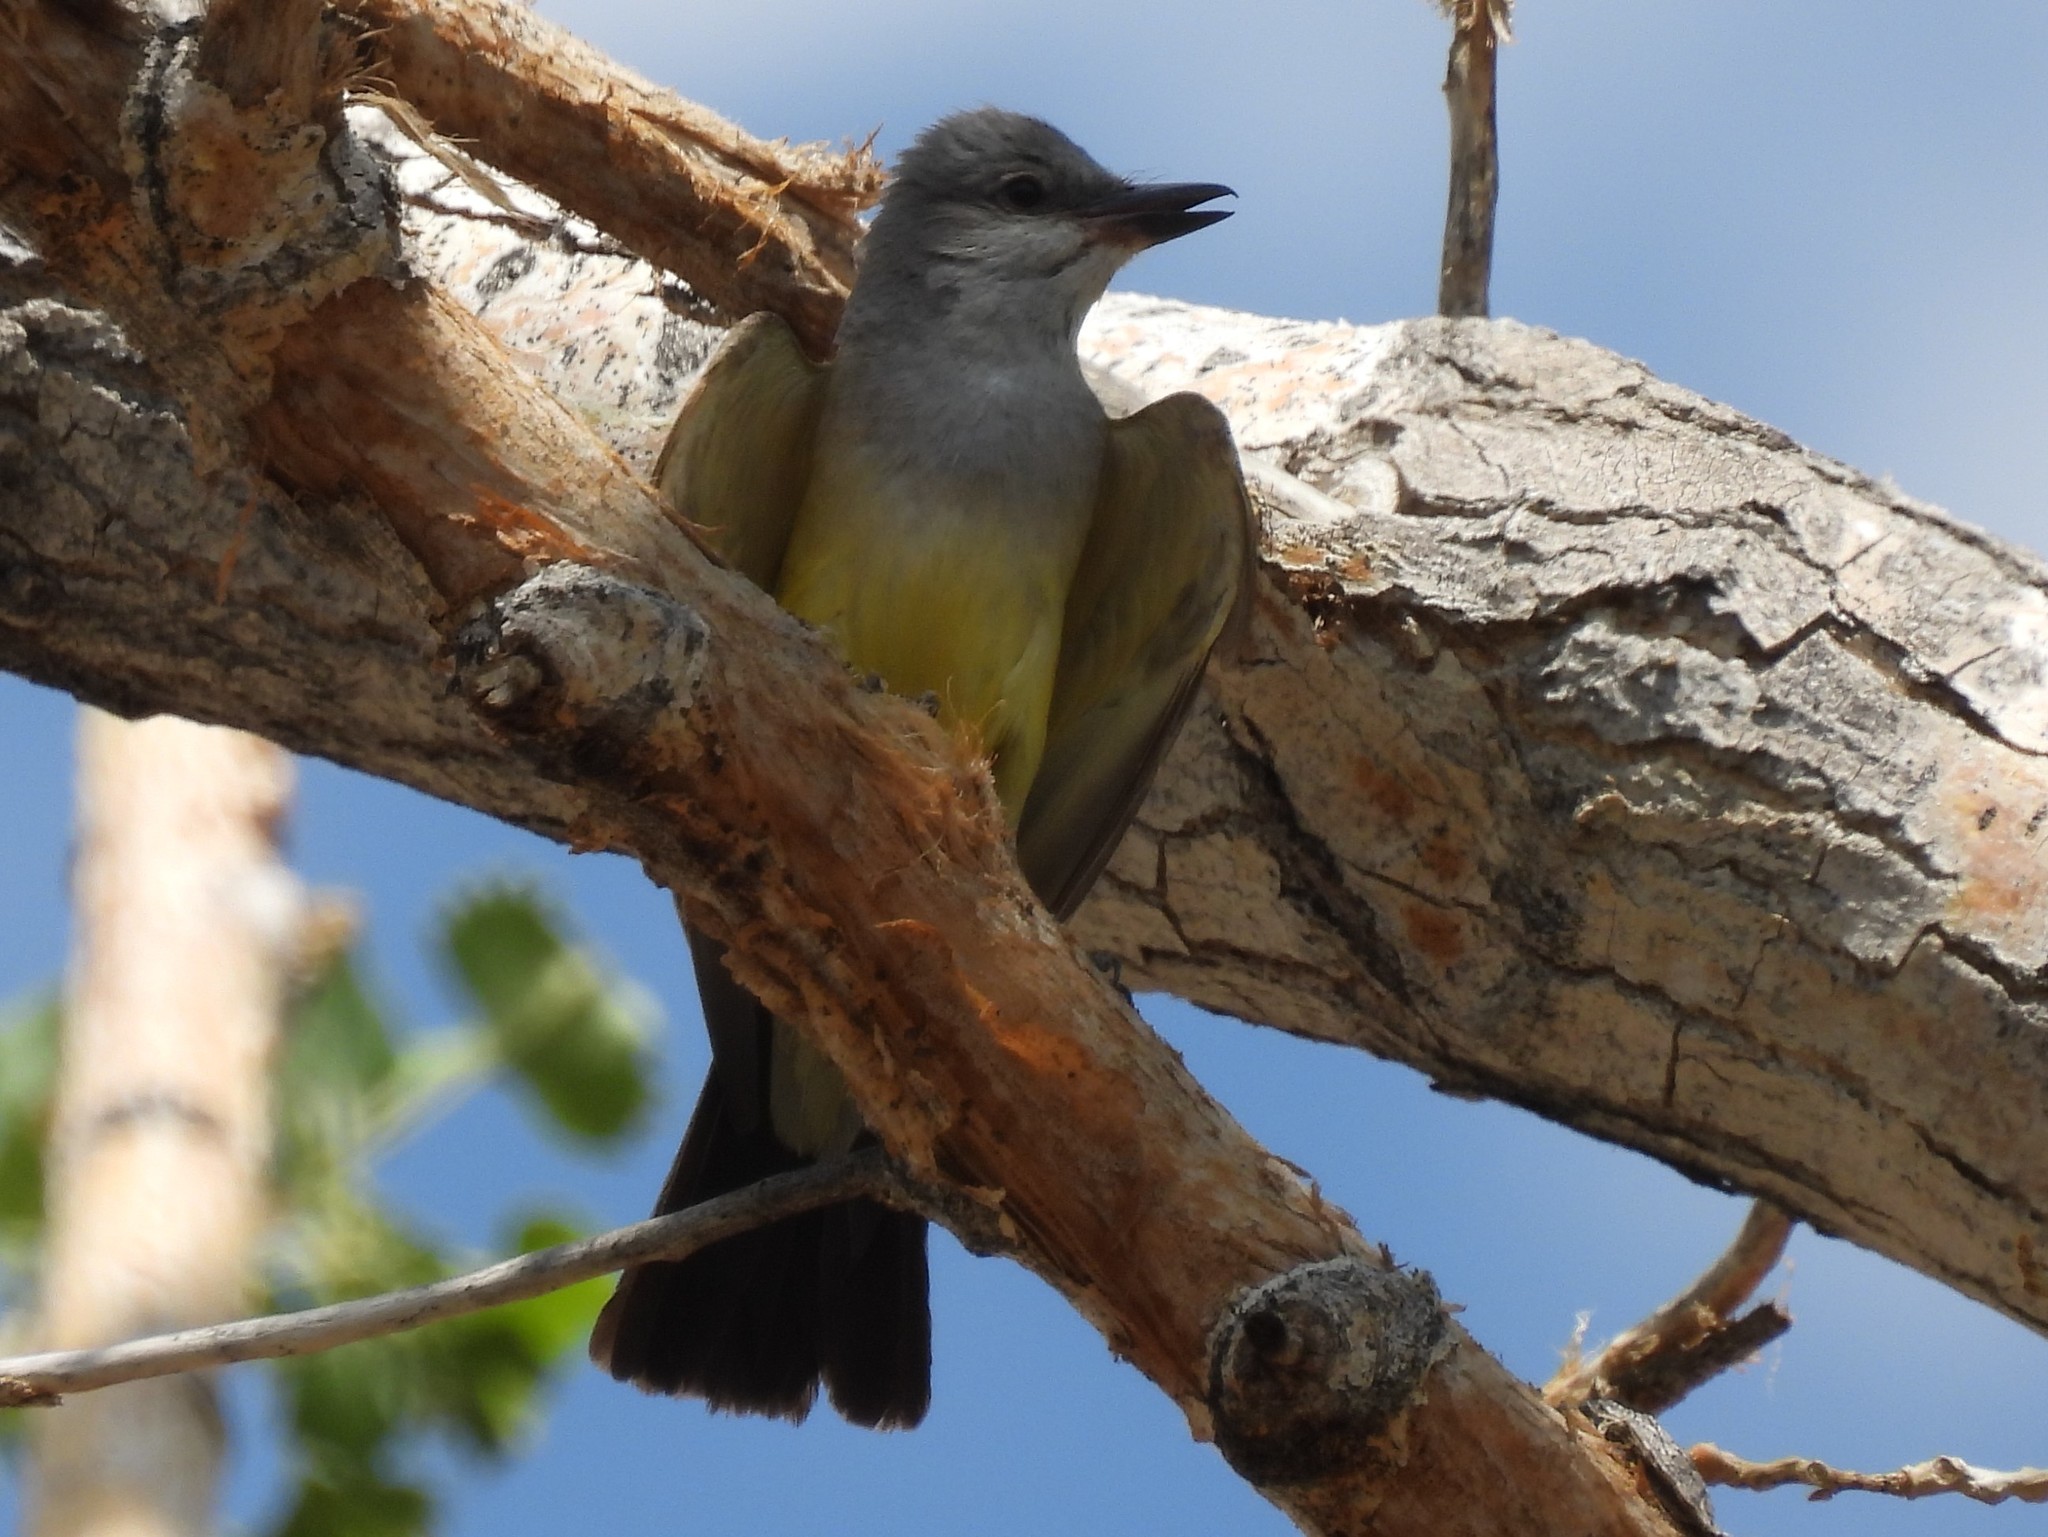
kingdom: Animalia
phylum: Chordata
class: Aves
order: Passeriformes
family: Tyrannidae
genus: Tyrannus
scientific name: Tyrannus verticalis
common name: Western kingbird
